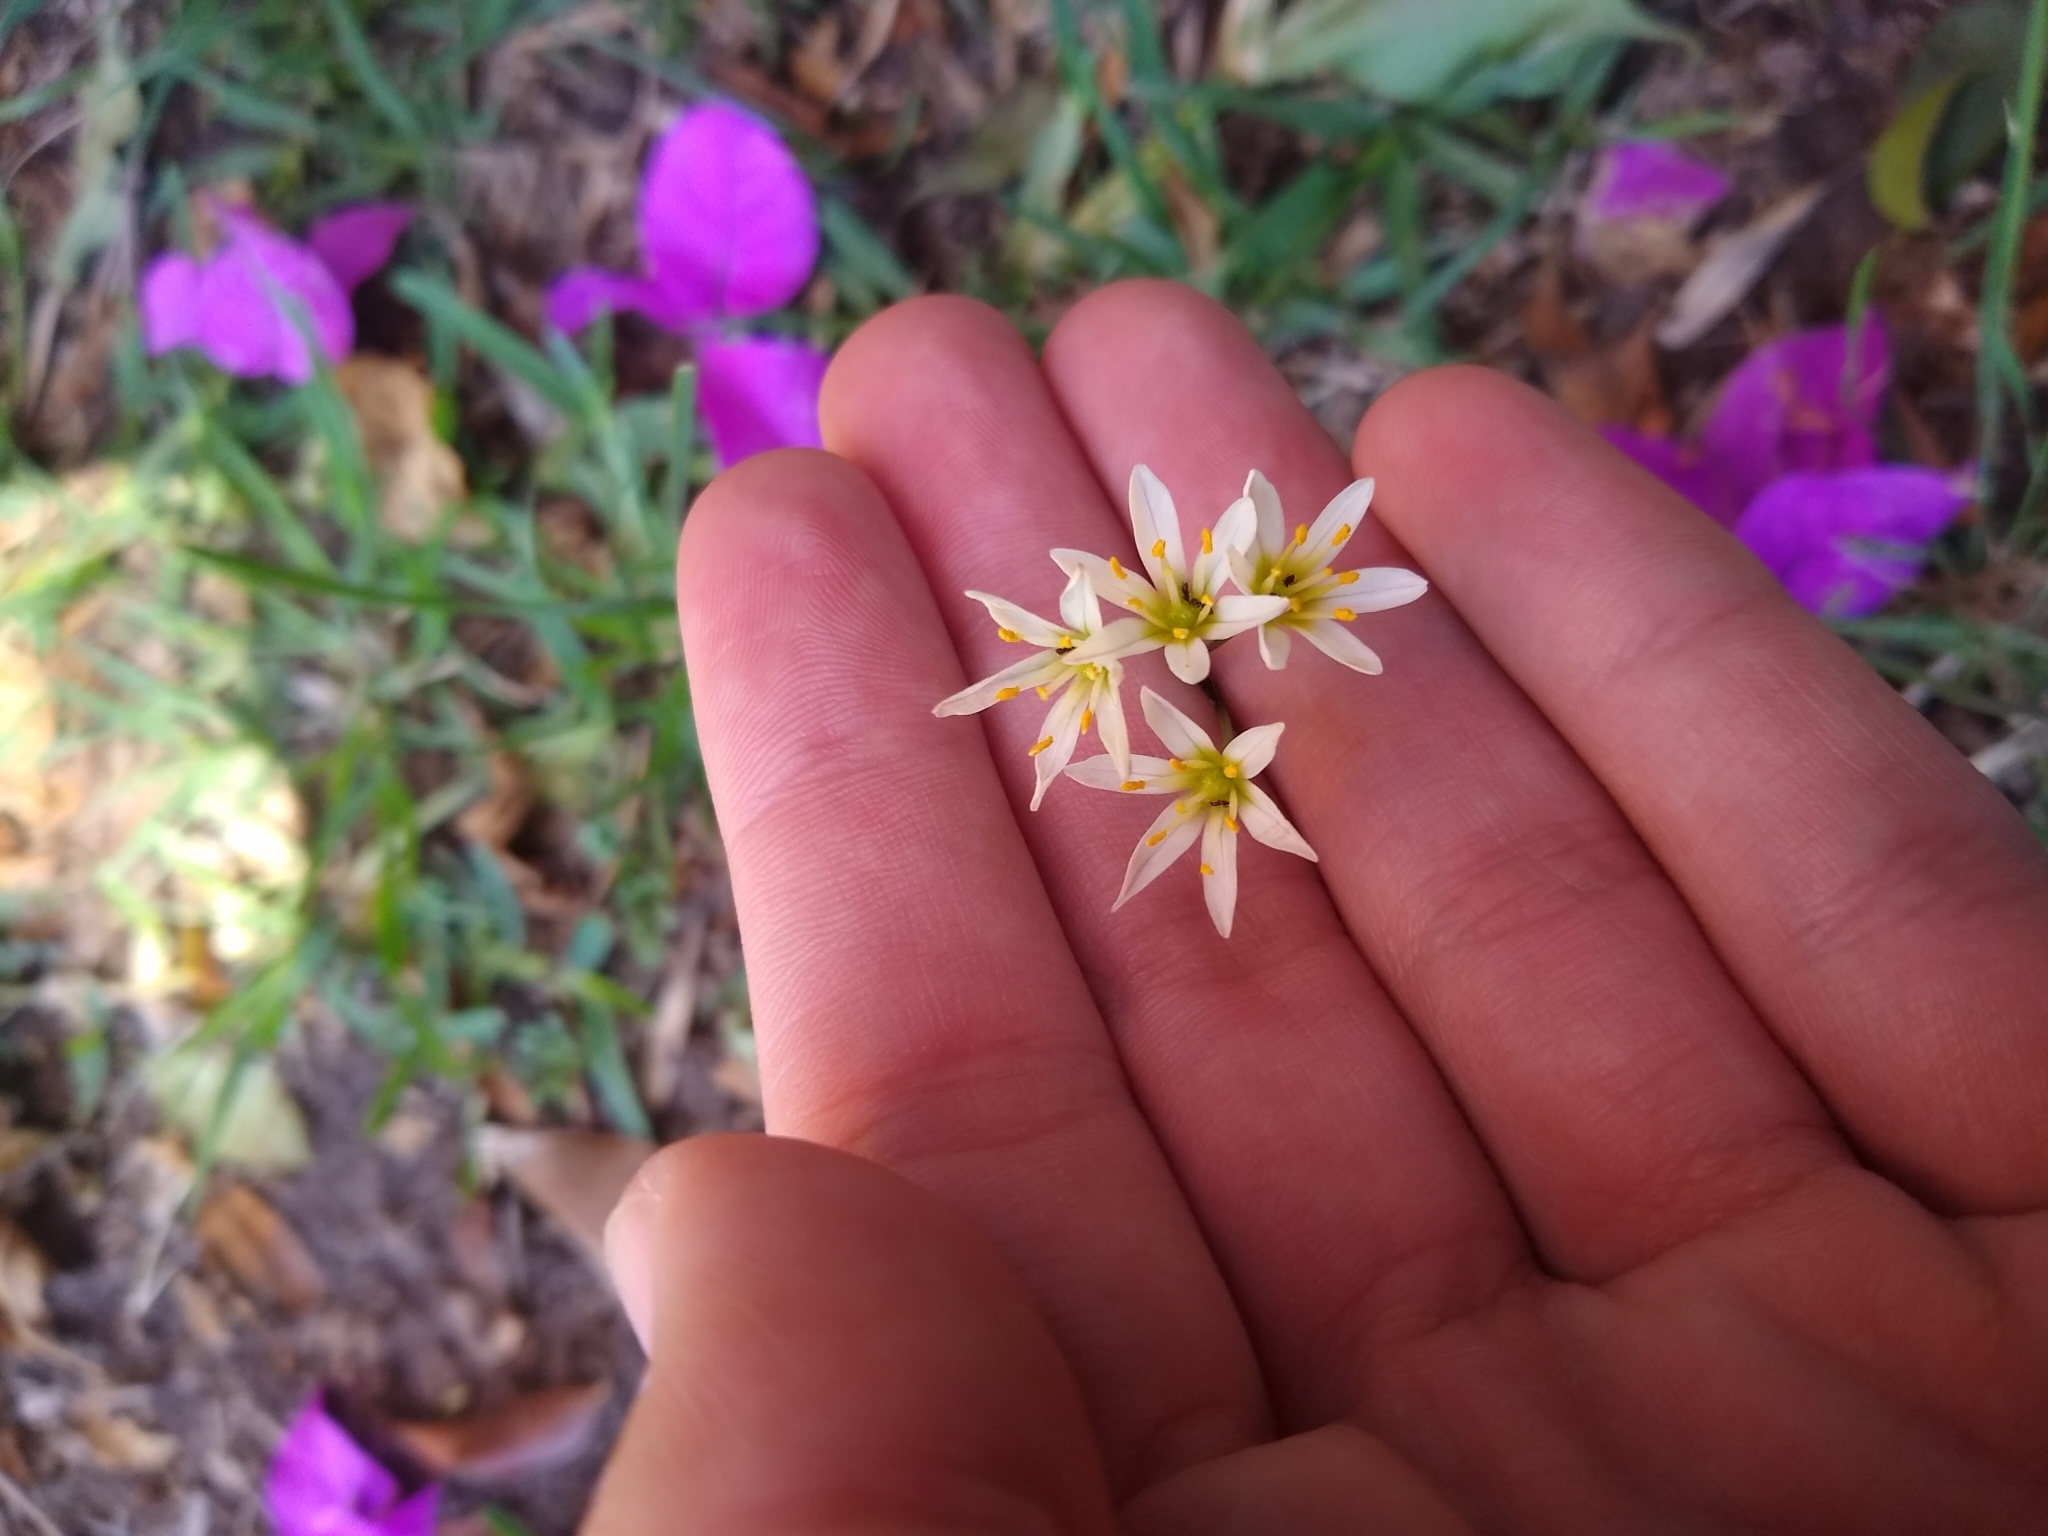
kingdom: Plantae
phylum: Tracheophyta
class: Liliopsida
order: Asparagales
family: Amaryllidaceae
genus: Nothoscordum
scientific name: Nothoscordum bonariense
